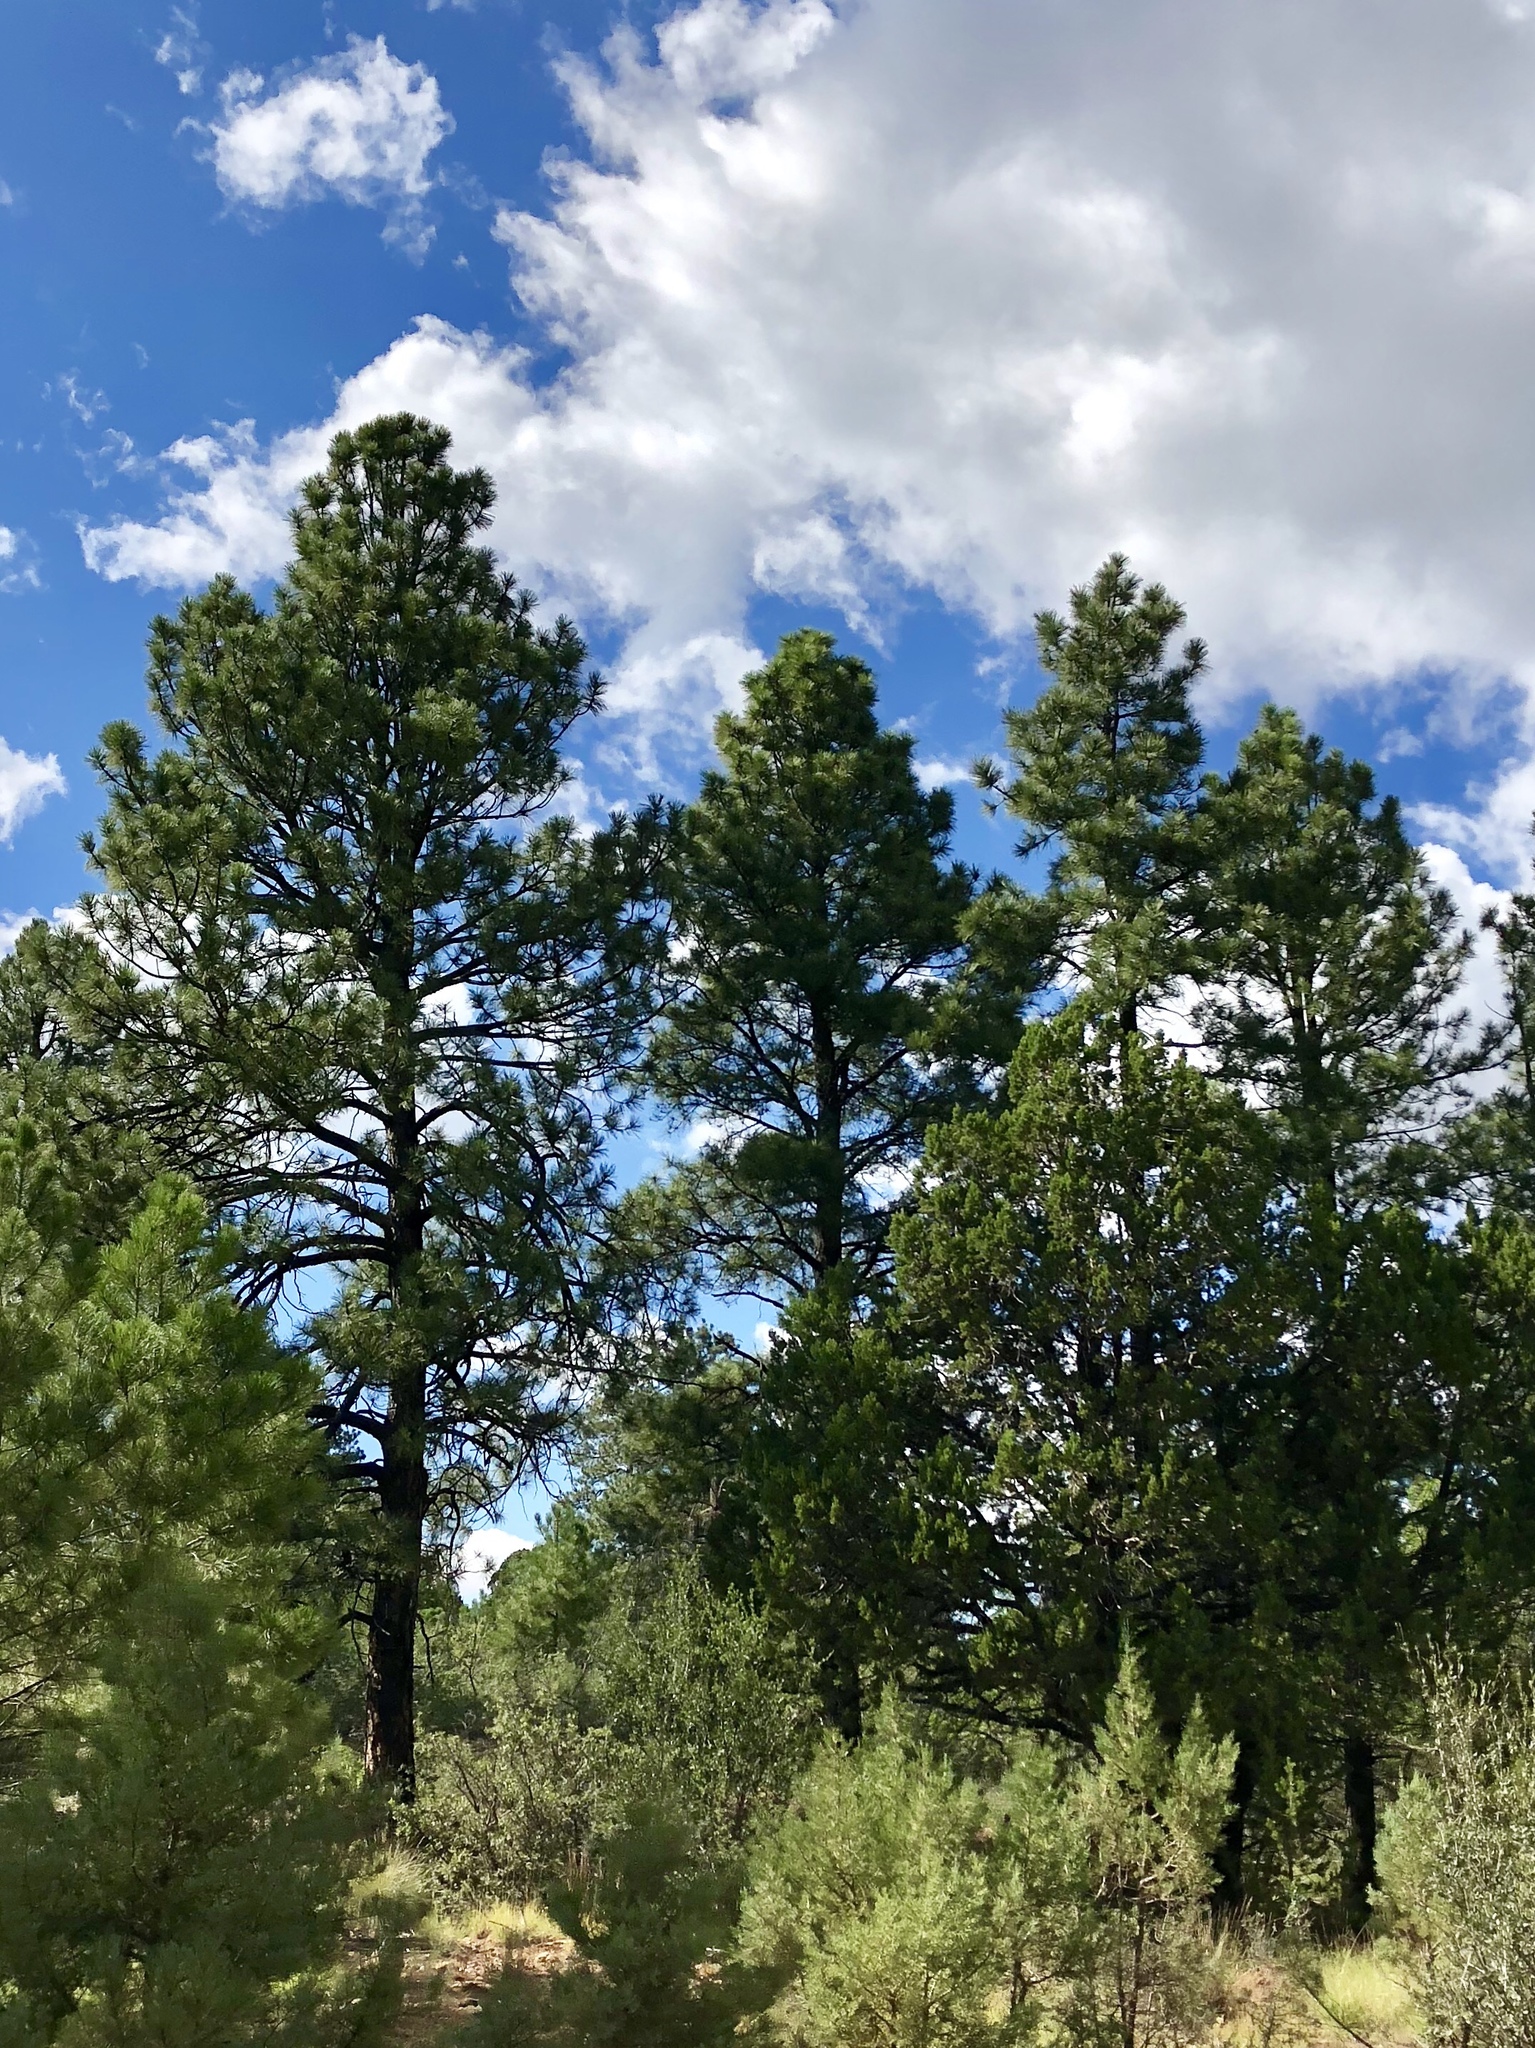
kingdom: Plantae
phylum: Tracheophyta
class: Pinopsida
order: Pinales
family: Pinaceae
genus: Pinus
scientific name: Pinus ponderosa
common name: Western yellow-pine
